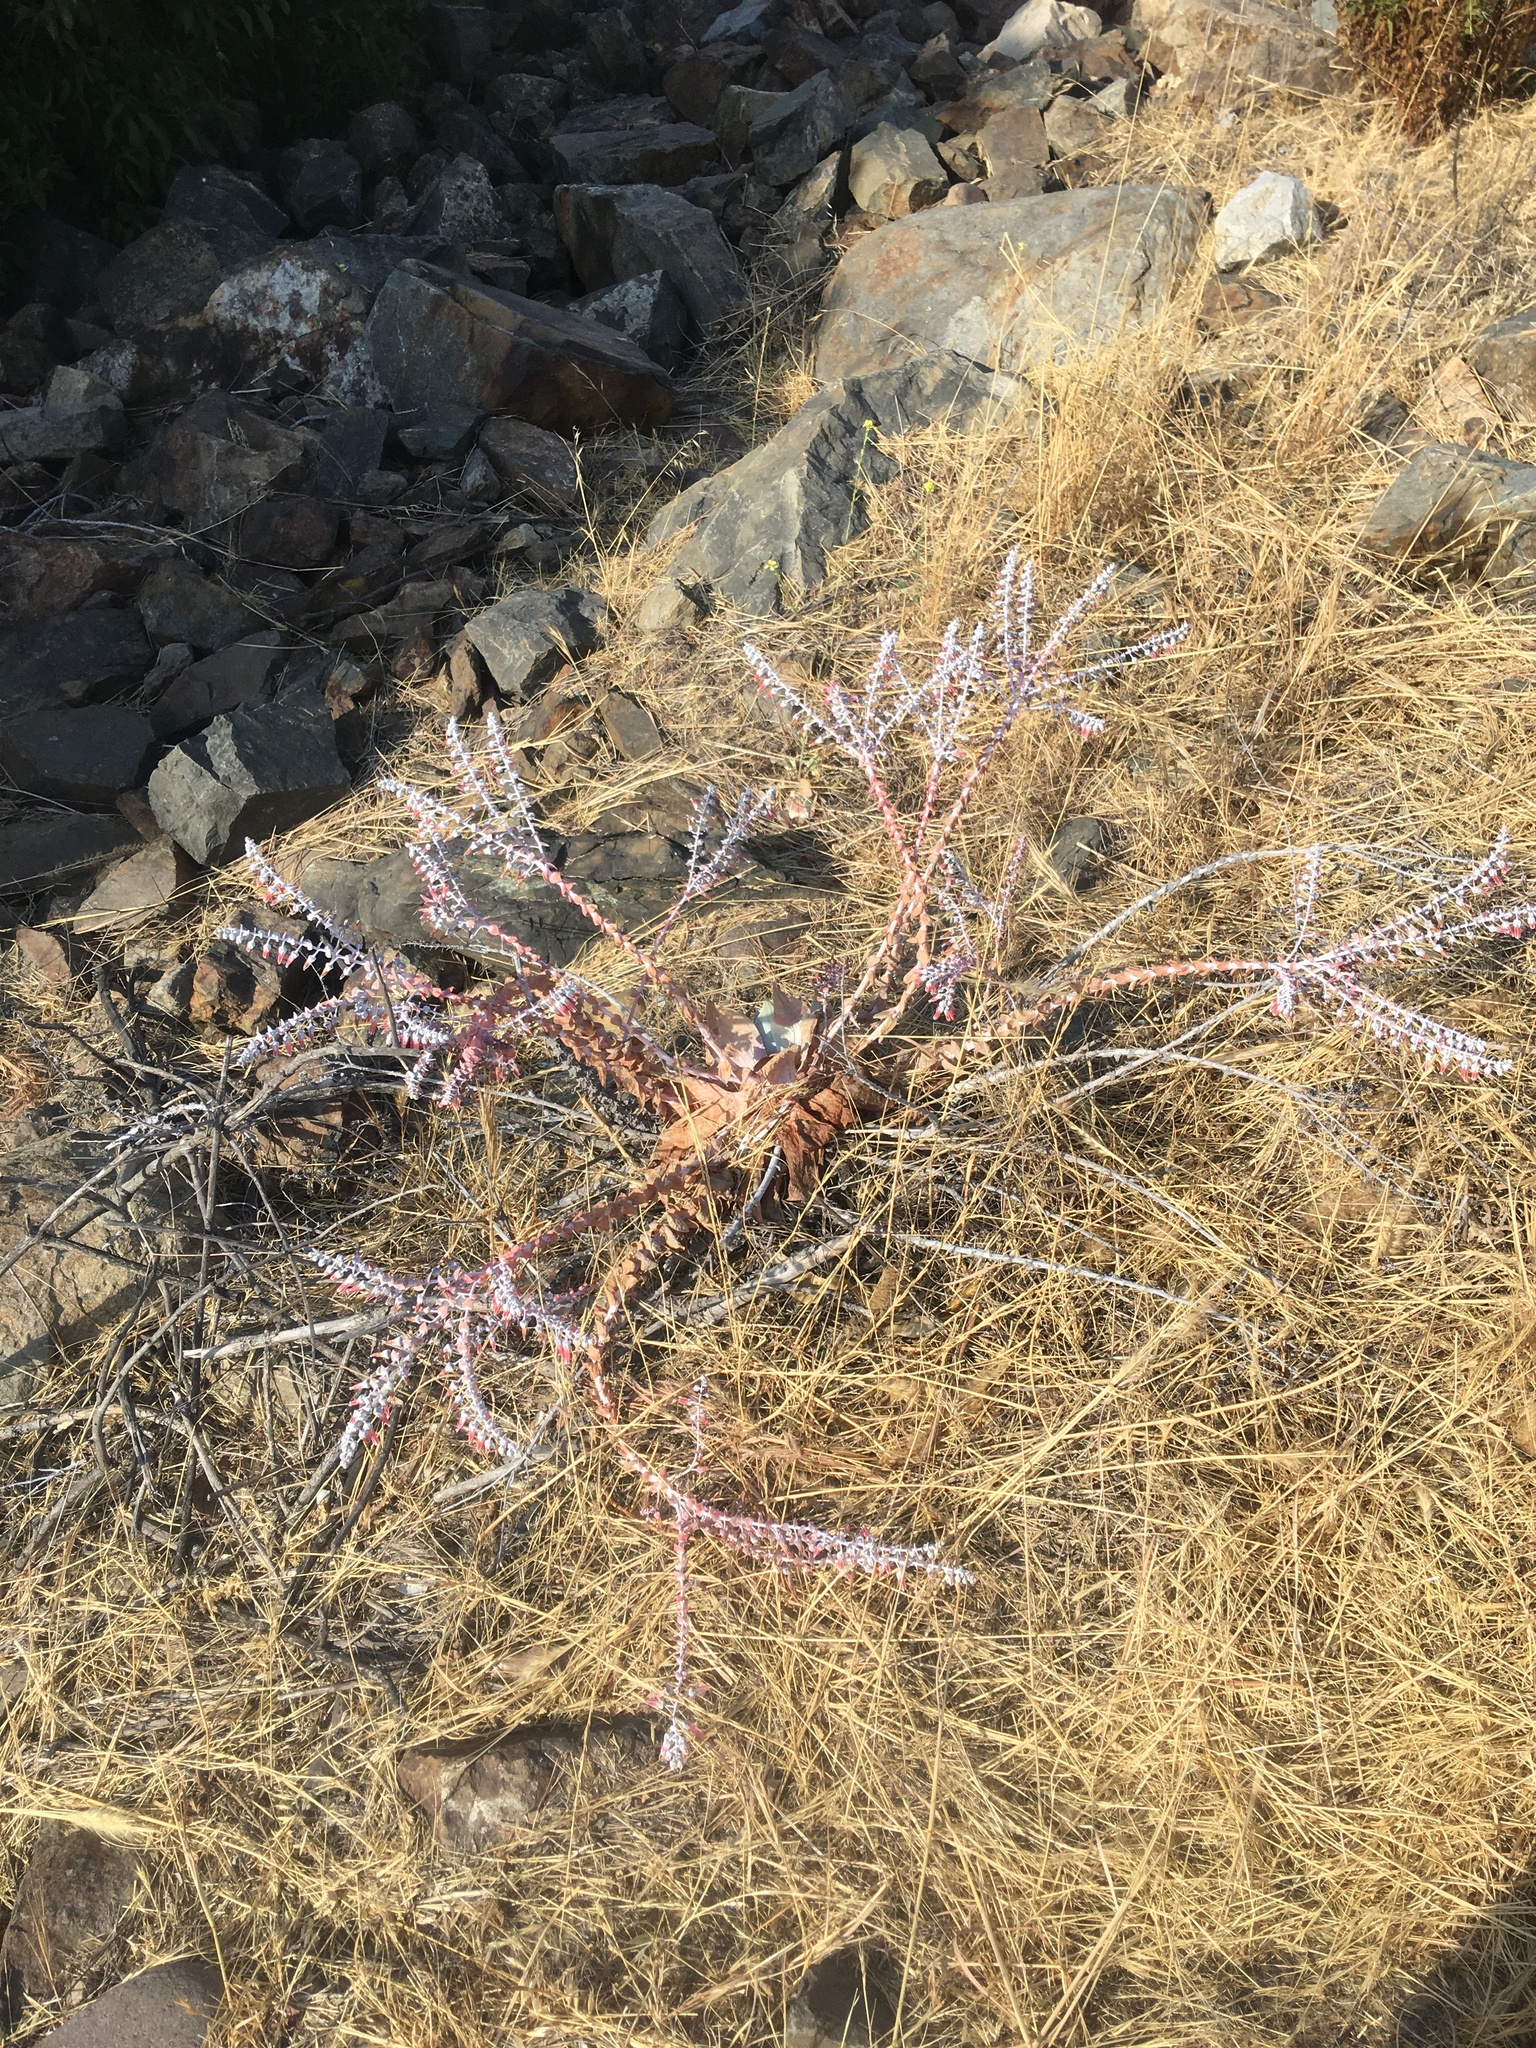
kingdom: Plantae
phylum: Tracheophyta
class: Magnoliopsida
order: Saxifragales
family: Crassulaceae
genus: Dudleya
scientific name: Dudleya pulverulenta
